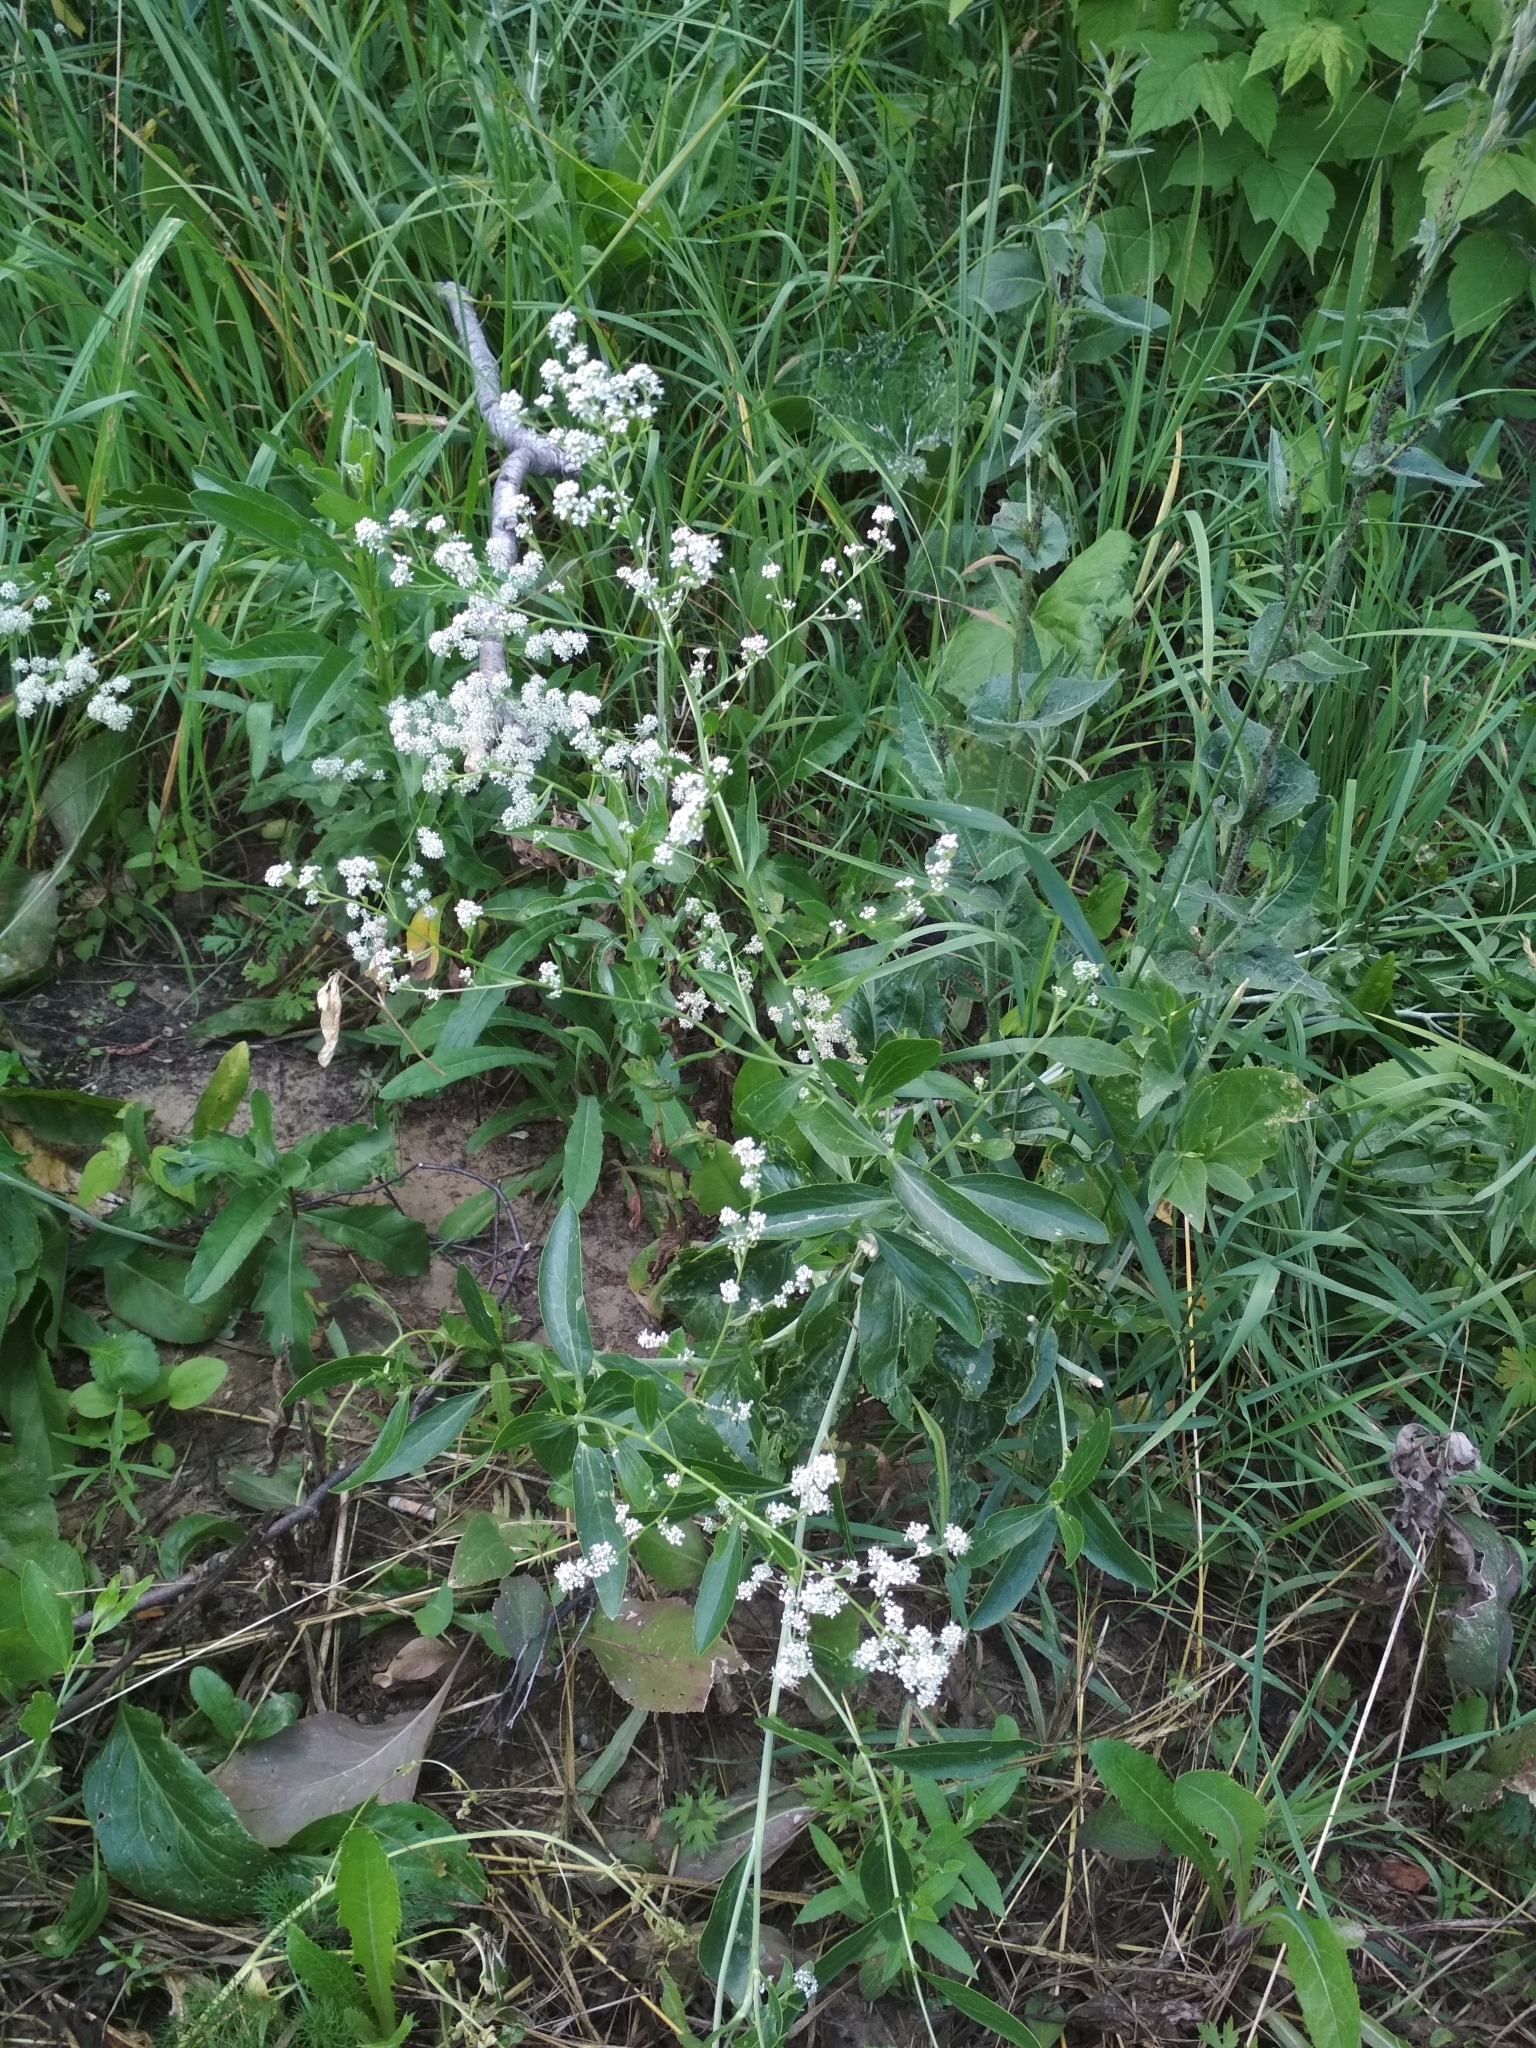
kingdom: Plantae
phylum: Tracheophyta
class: Magnoliopsida
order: Brassicales
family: Brassicaceae
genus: Lepidium
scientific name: Lepidium latifolium
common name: Dittander
